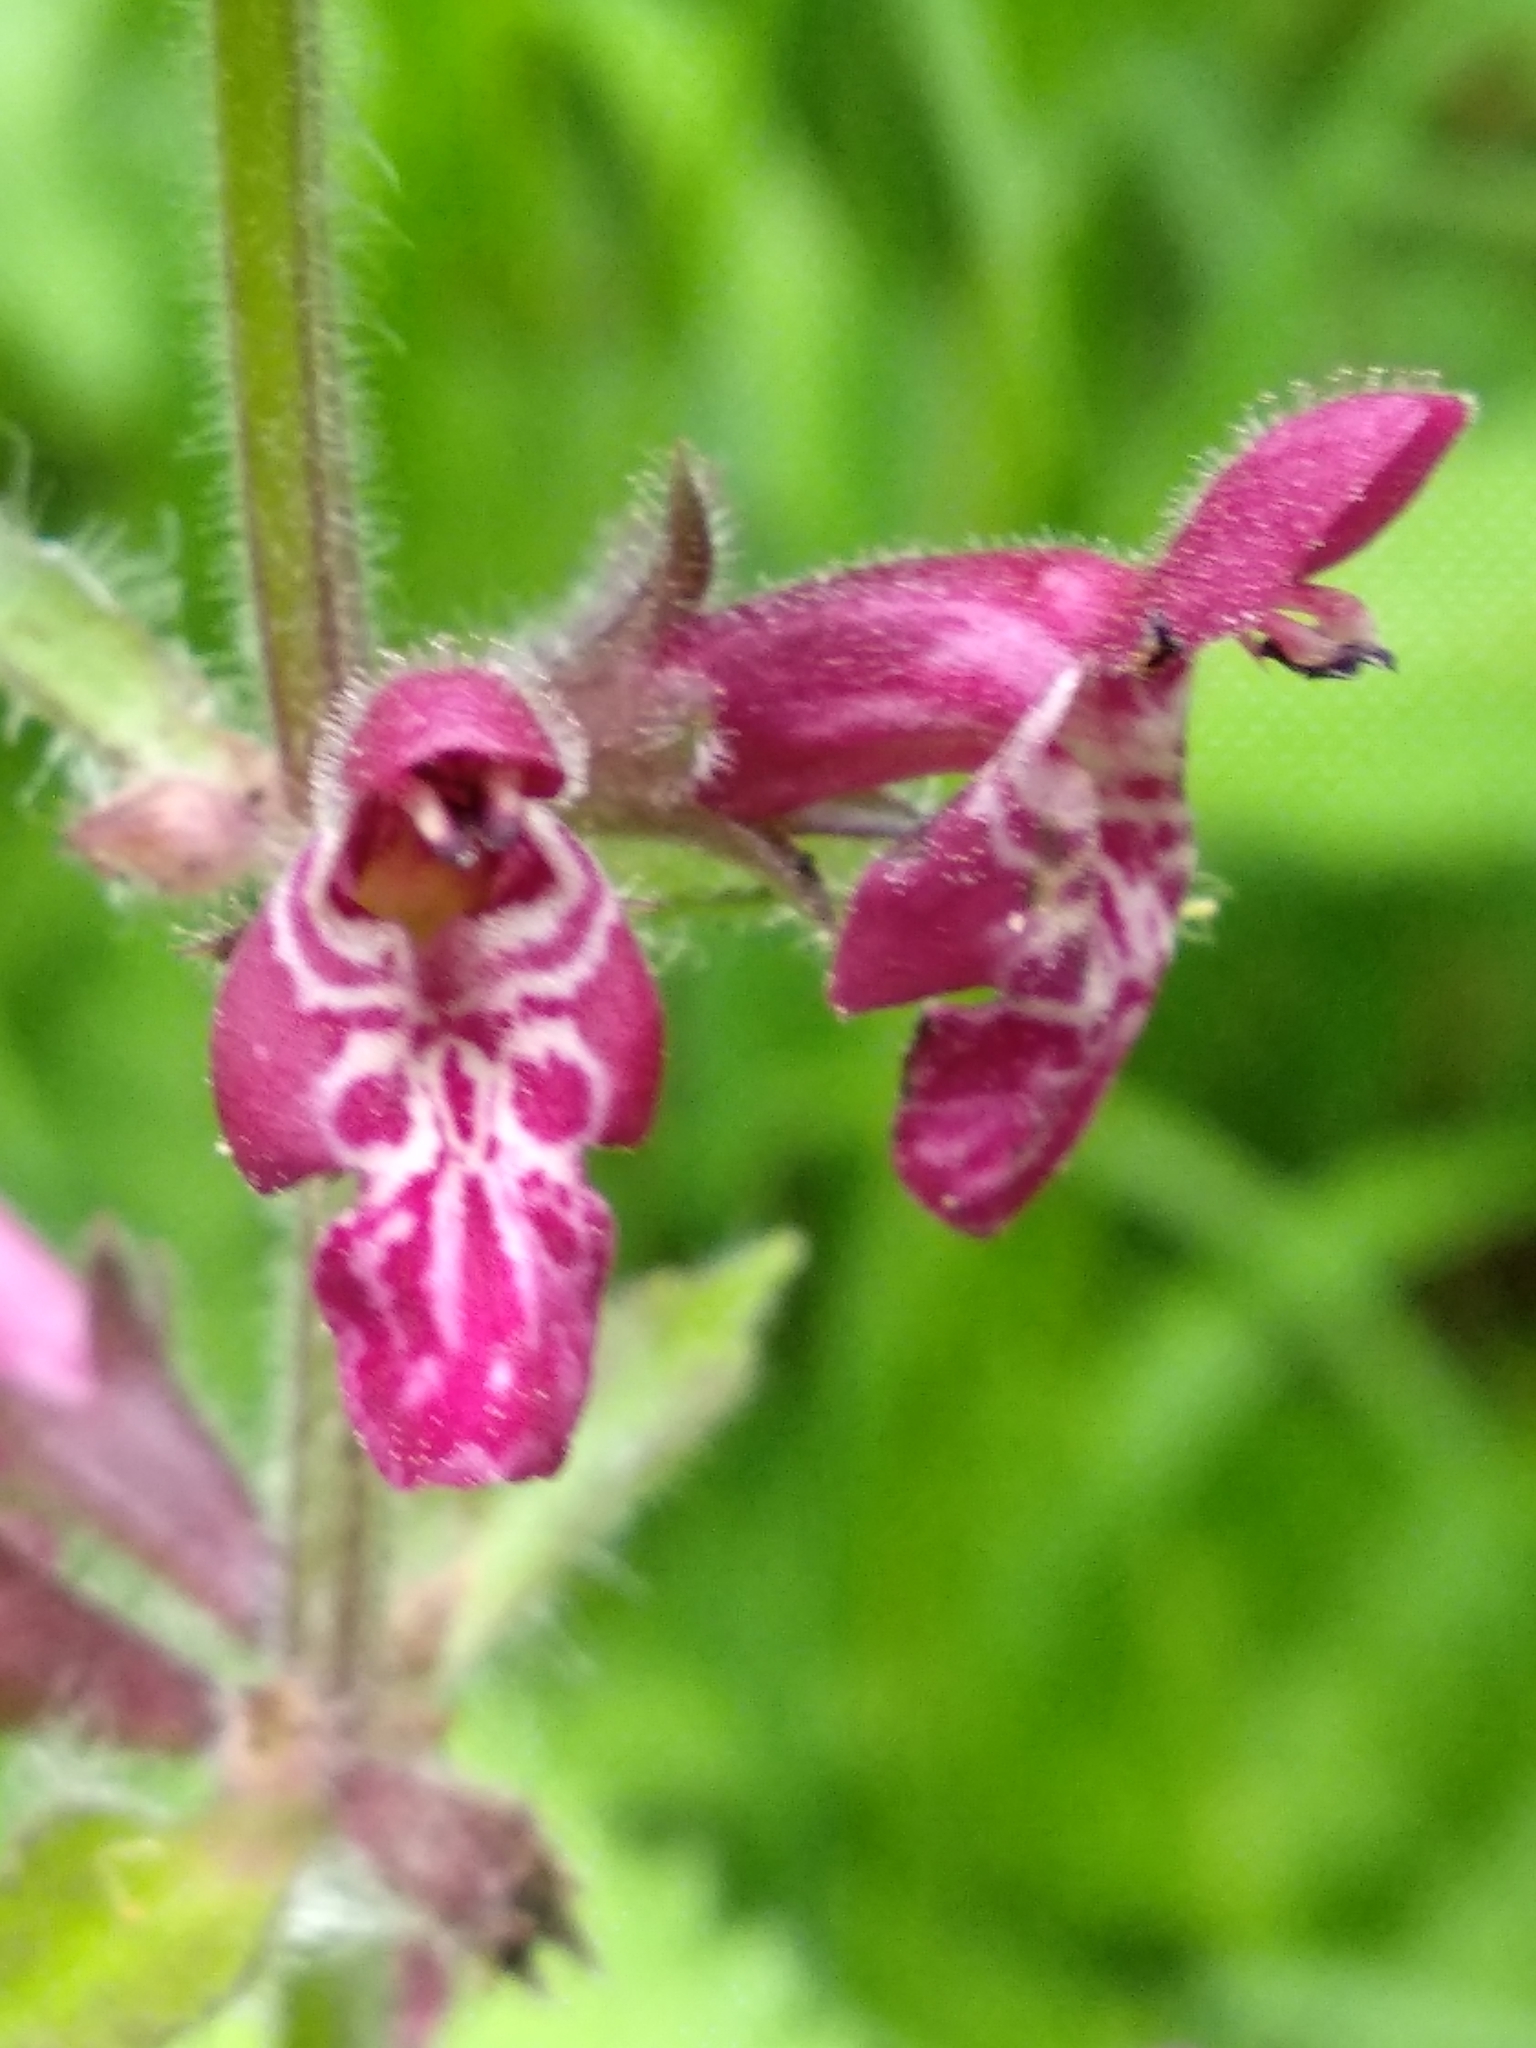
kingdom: Plantae
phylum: Tracheophyta
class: Magnoliopsida
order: Lamiales
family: Lamiaceae
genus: Stachys
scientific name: Stachys sylvatica
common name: Hedge woundwort
